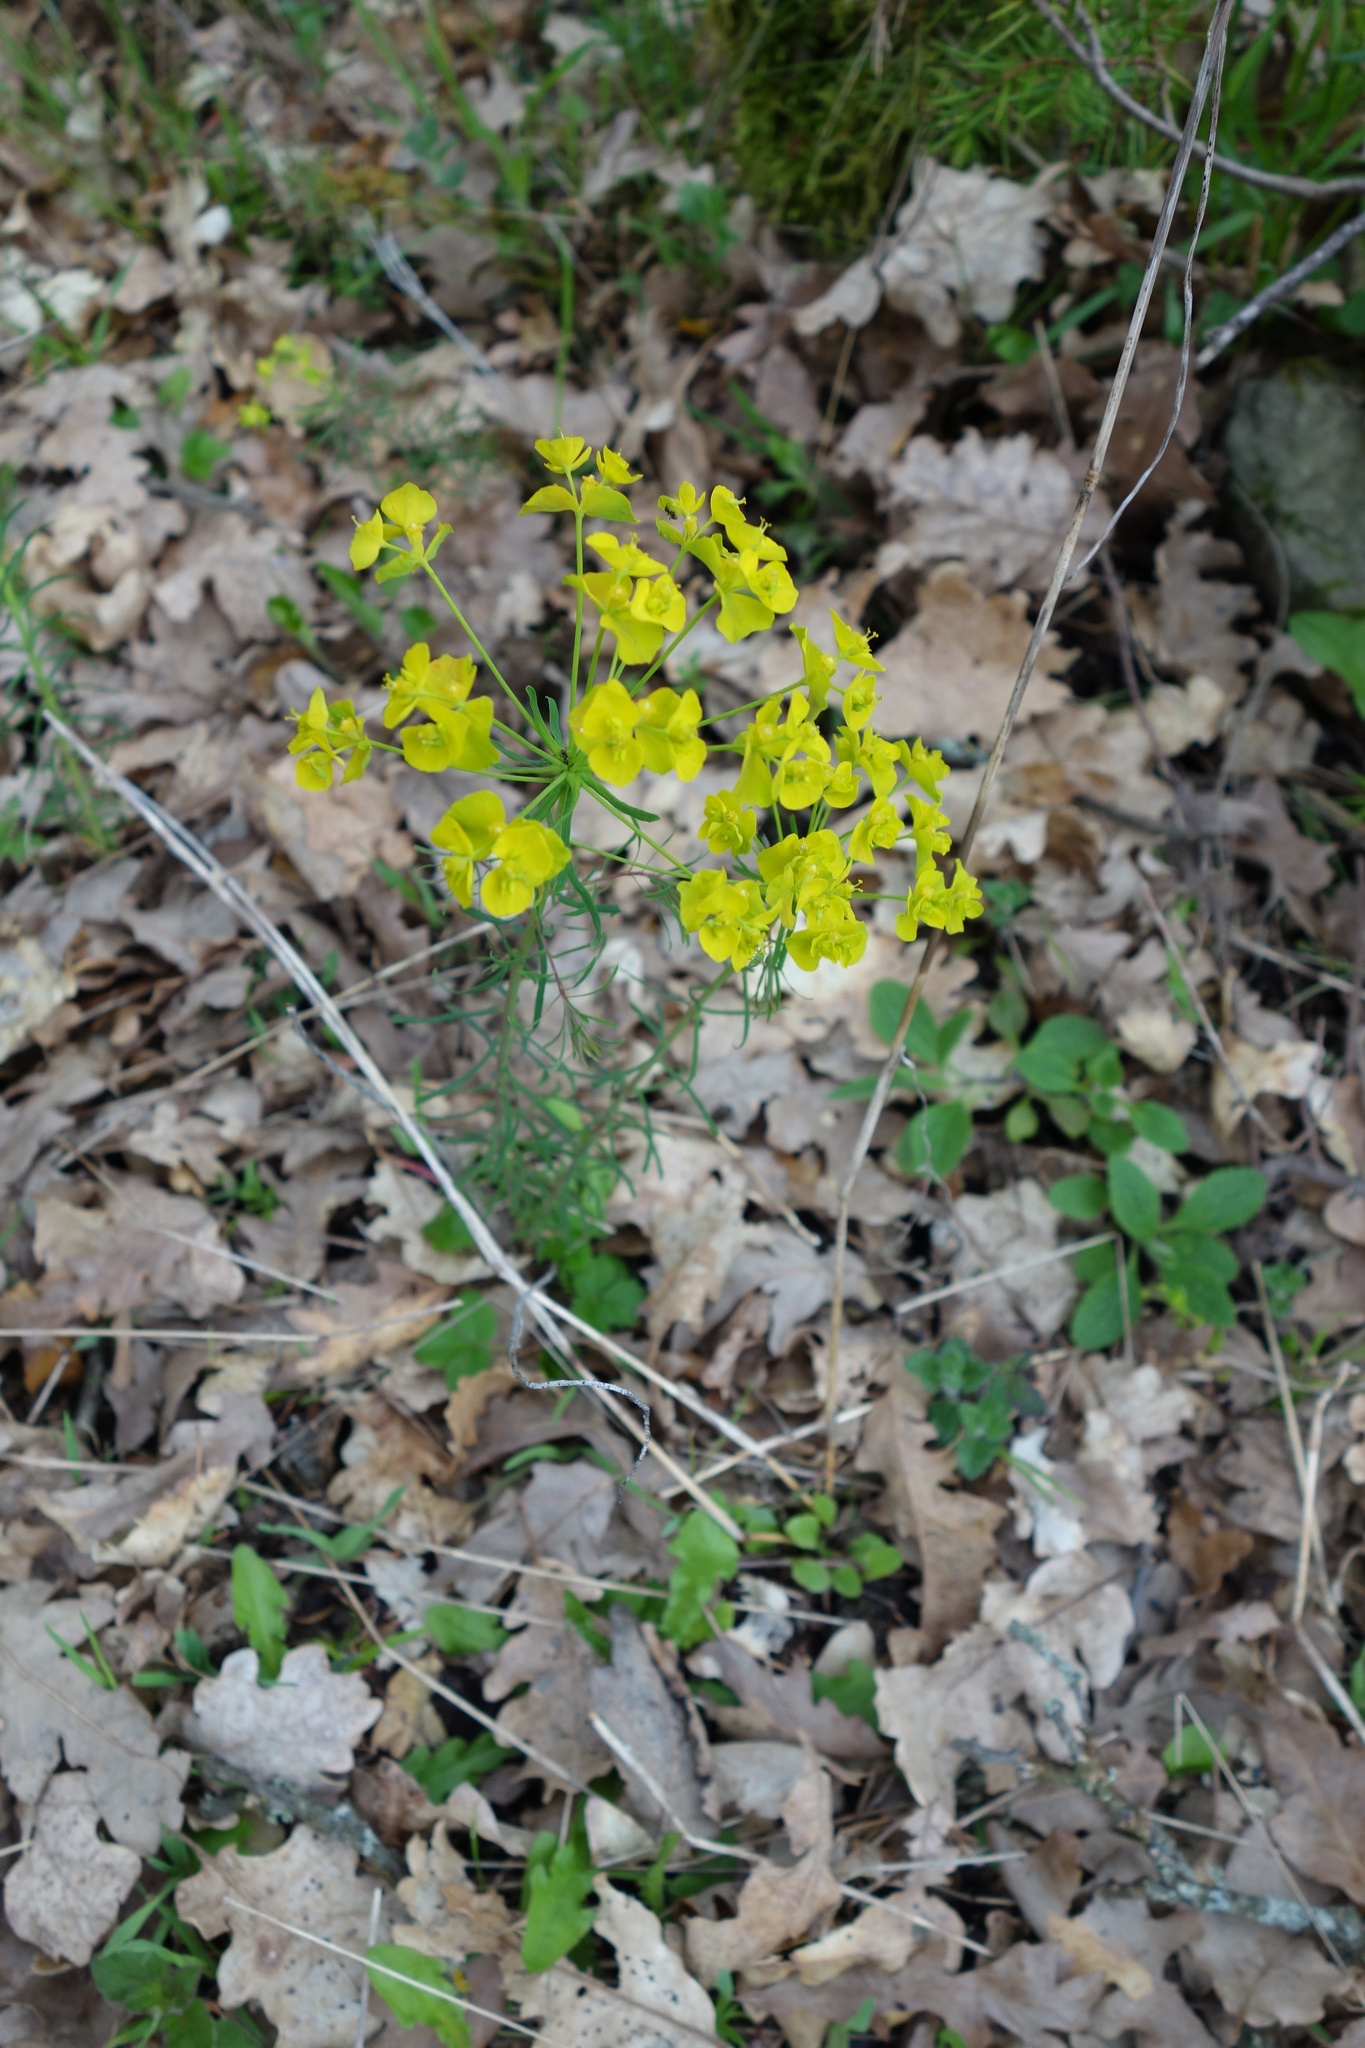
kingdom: Plantae
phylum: Tracheophyta
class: Magnoliopsida
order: Malpighiales
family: Euphorbiaceae
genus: Euphorbia
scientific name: Euphorbia cyparissias
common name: Cypress spurge
